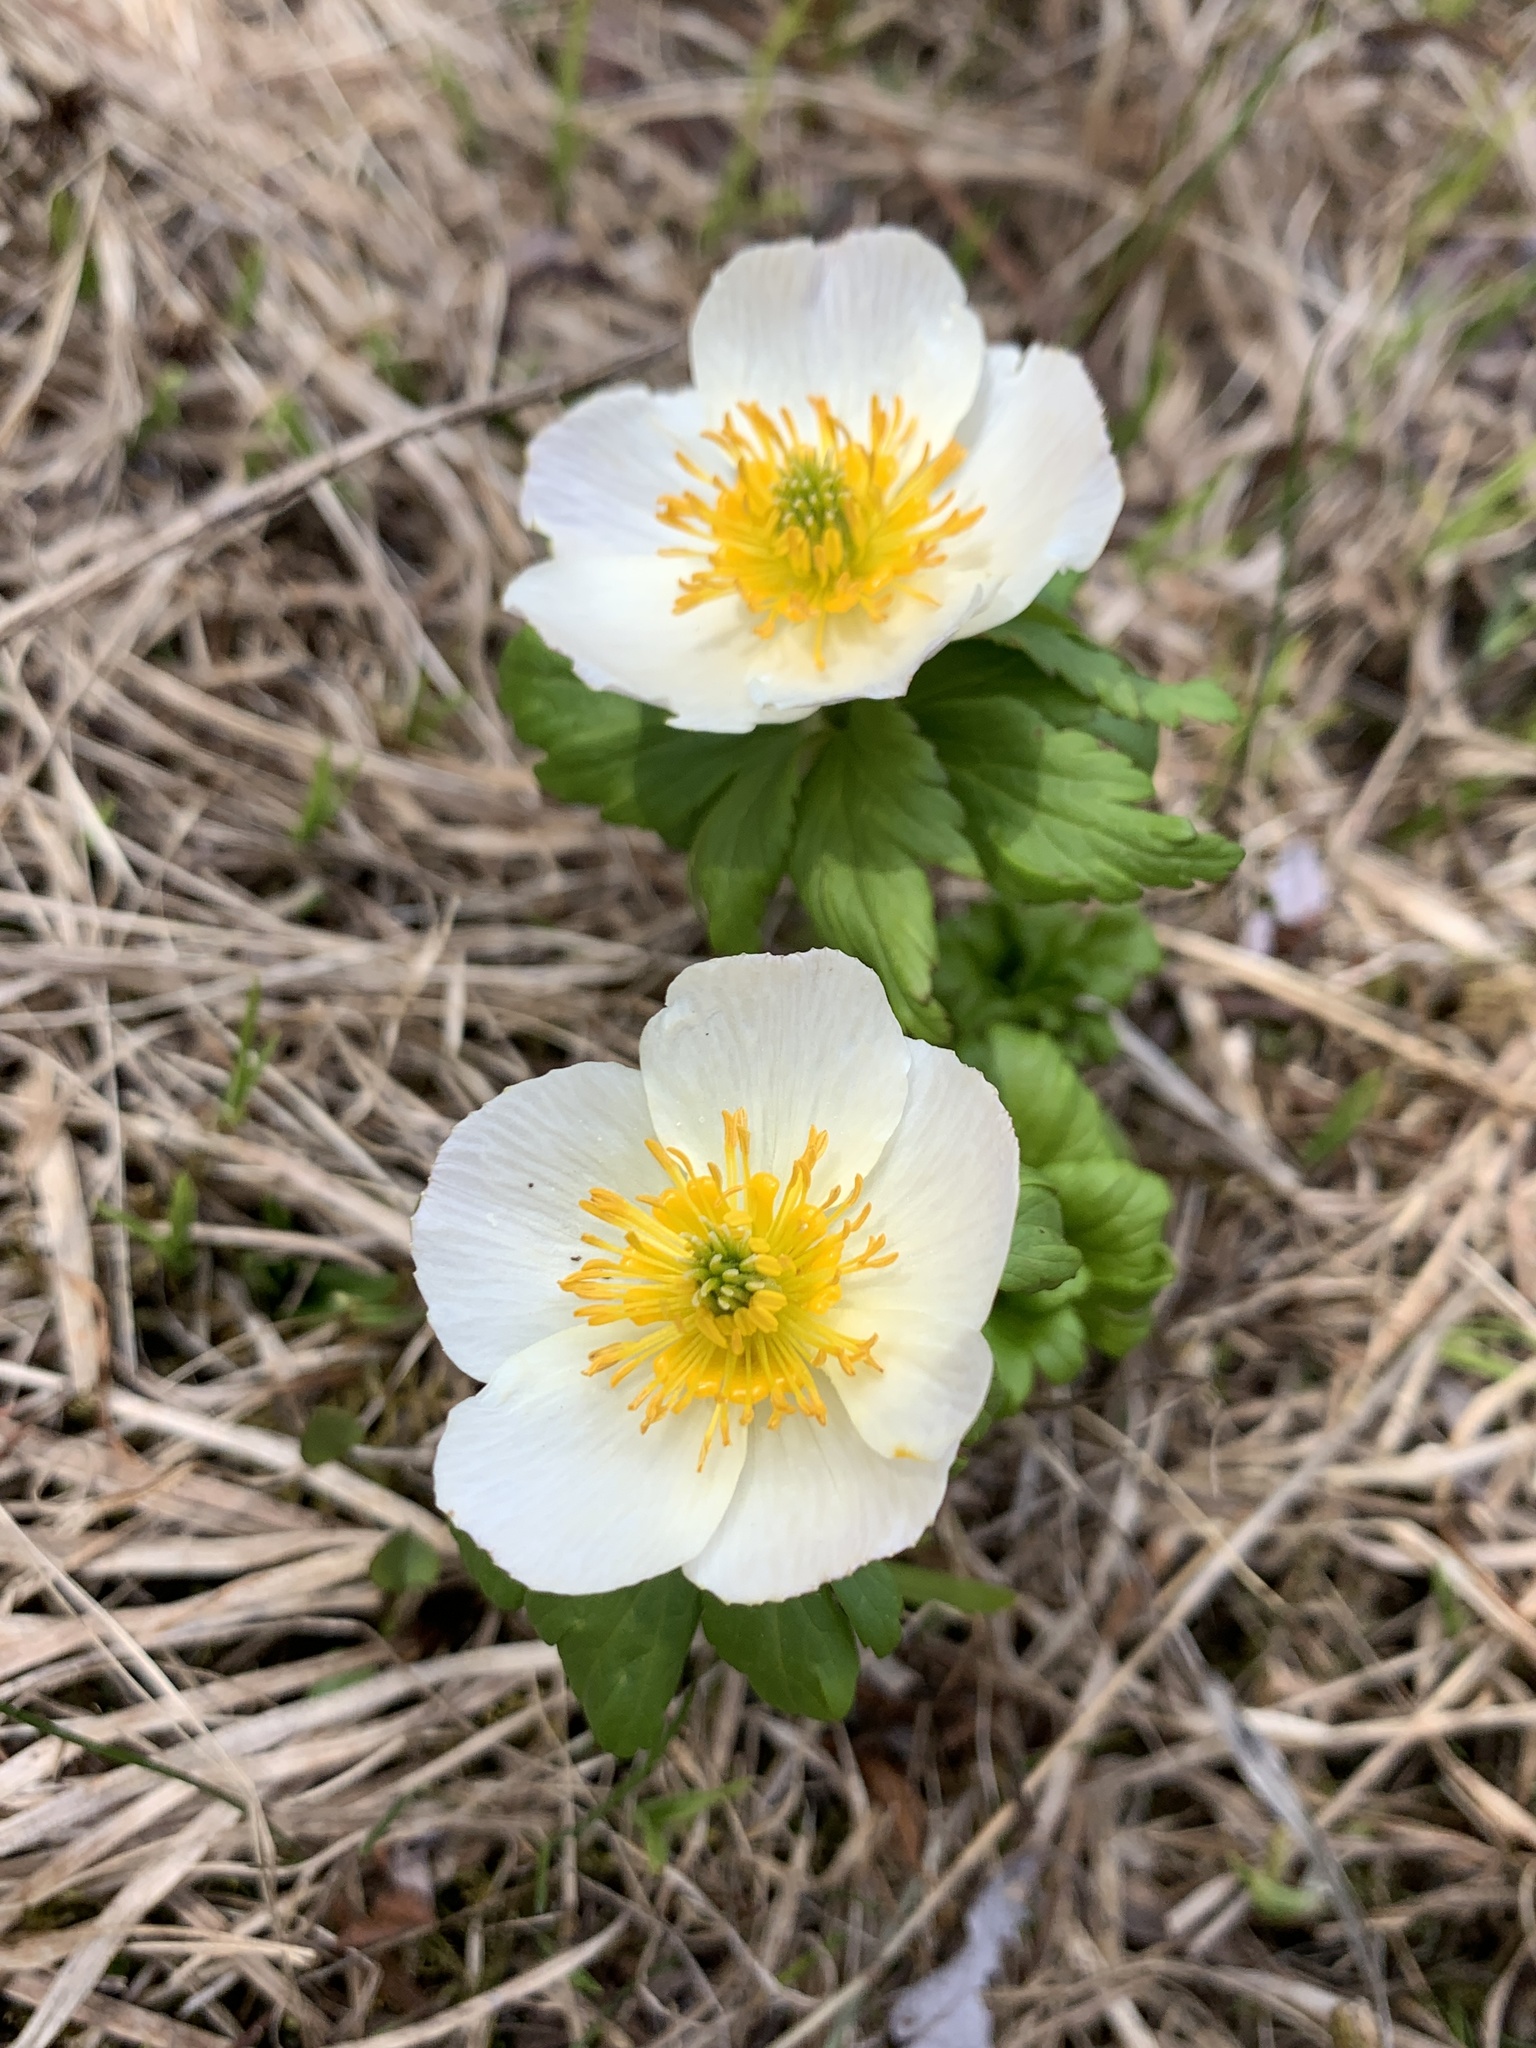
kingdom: Plantae
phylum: Tracheophyta
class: Magnoliopsida
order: Ranunculales
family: Ranunculaceae
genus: Trollius
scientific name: Trollius laxus
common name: American globeflower
